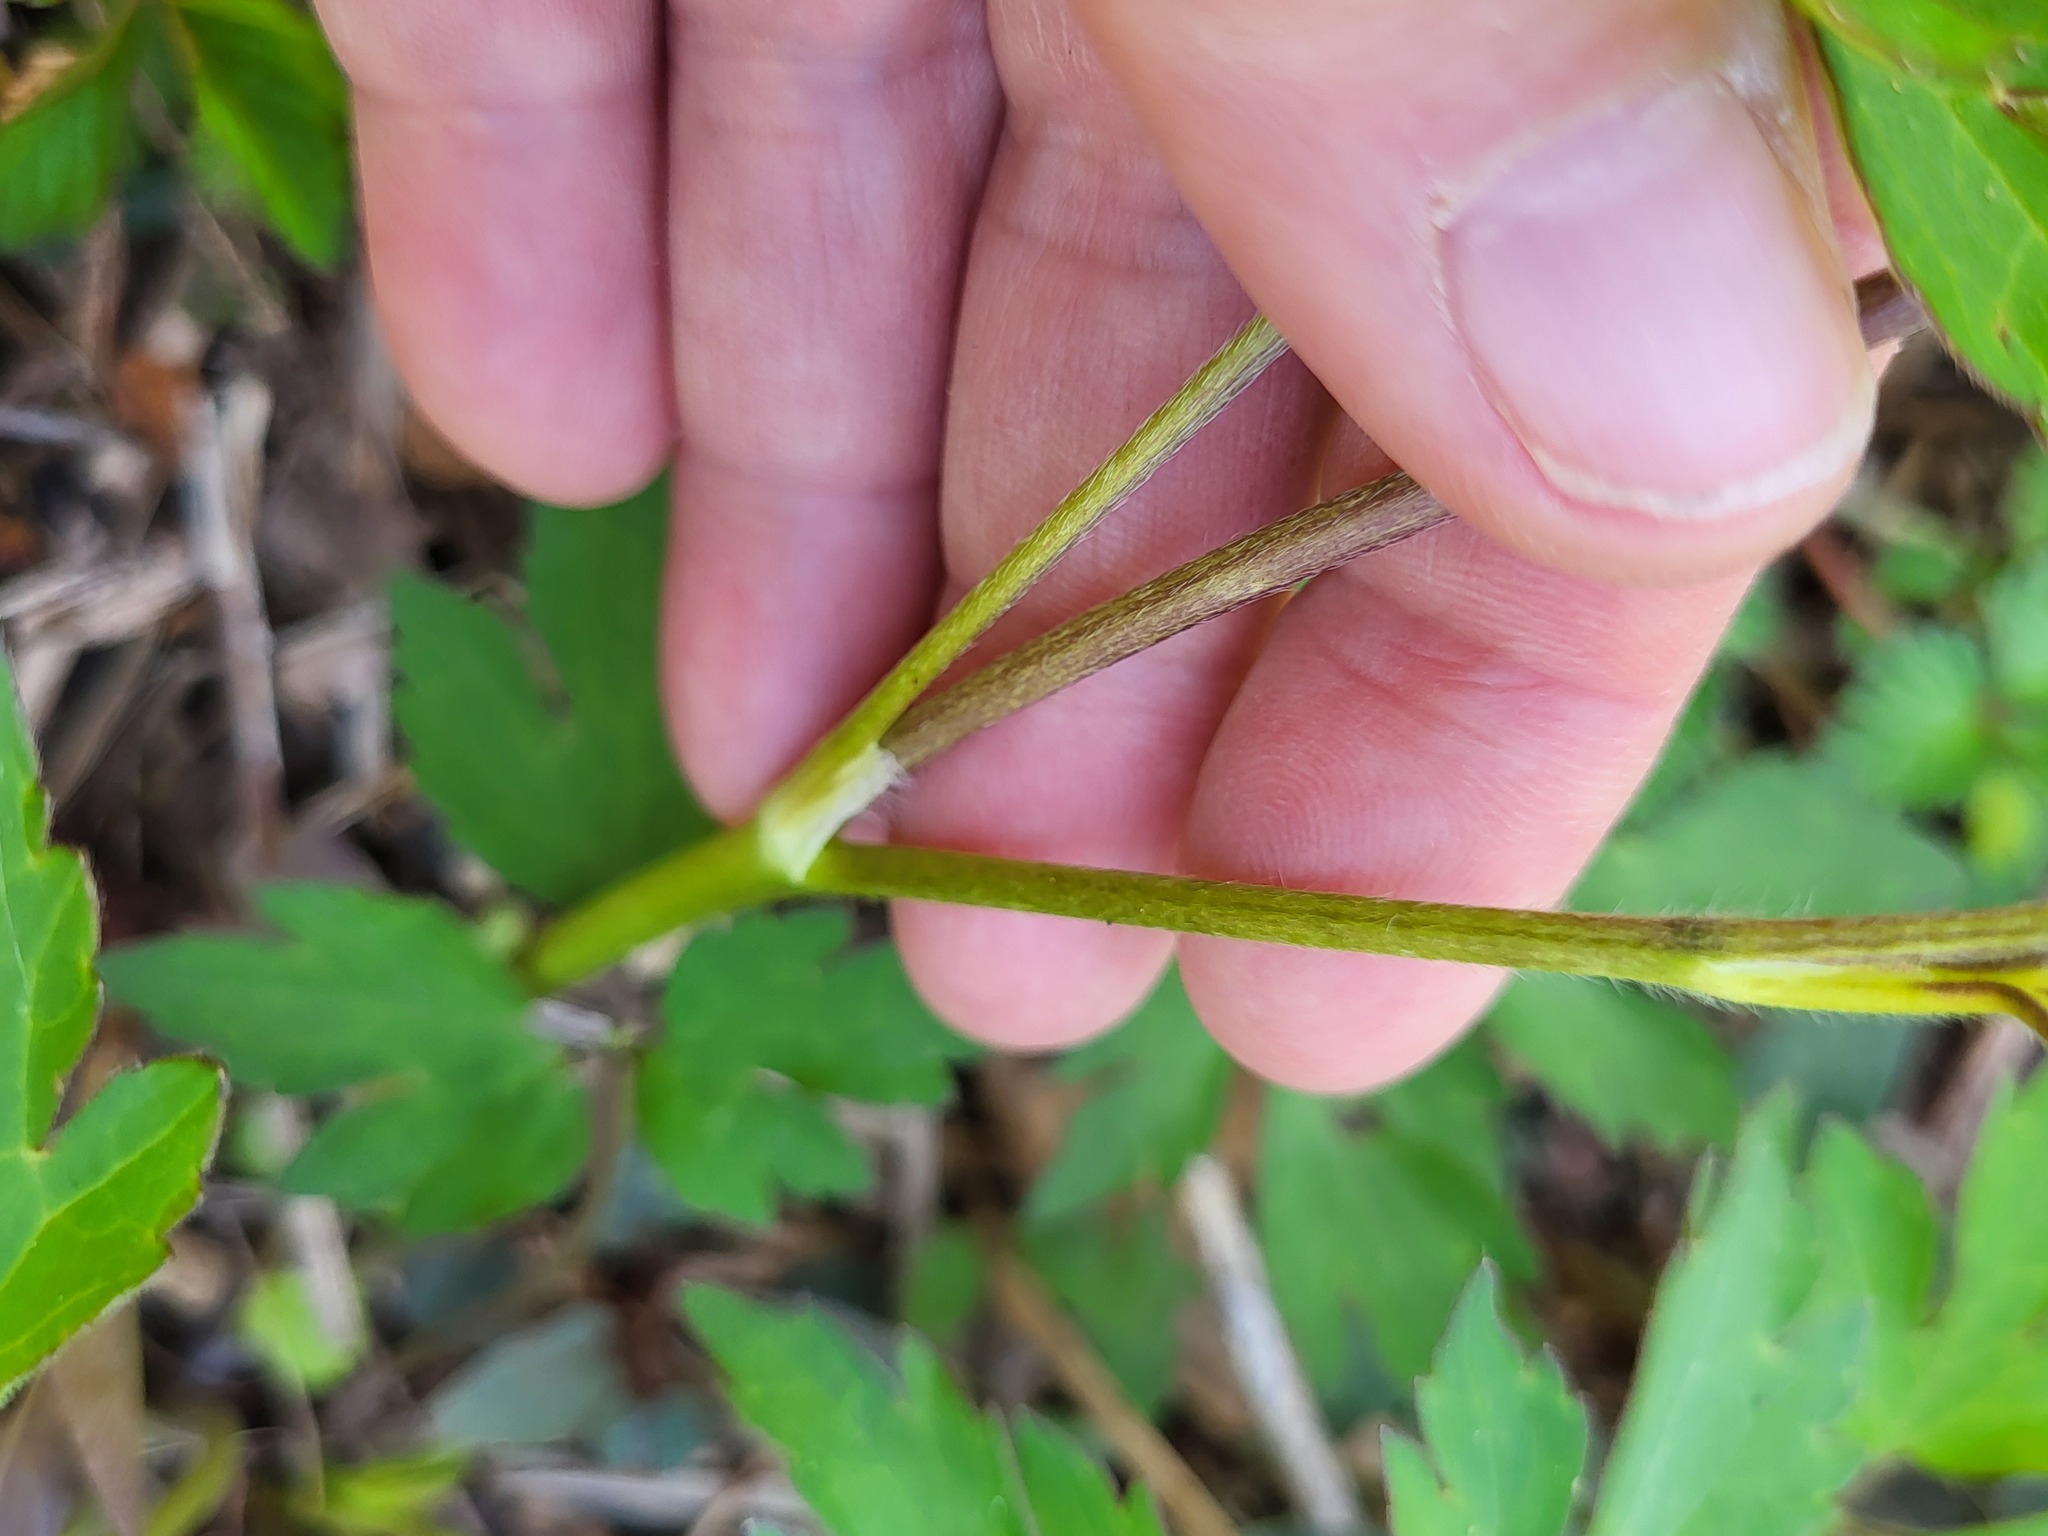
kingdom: Plantae
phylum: Tracheophyta
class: Magnoliopsida
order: Ranunculales
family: Ranunculaceae
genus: Ranunculus
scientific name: Ranunculus hispidus
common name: Bristly buttercup
